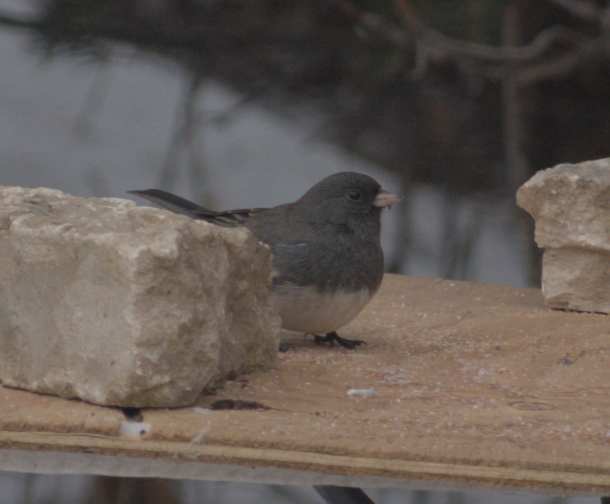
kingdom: Animalia
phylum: Chordata
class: Aves
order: Passeriformes
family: Passerellidae
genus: Junco
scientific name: Junco hyemalis
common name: Dark-eyed junco
